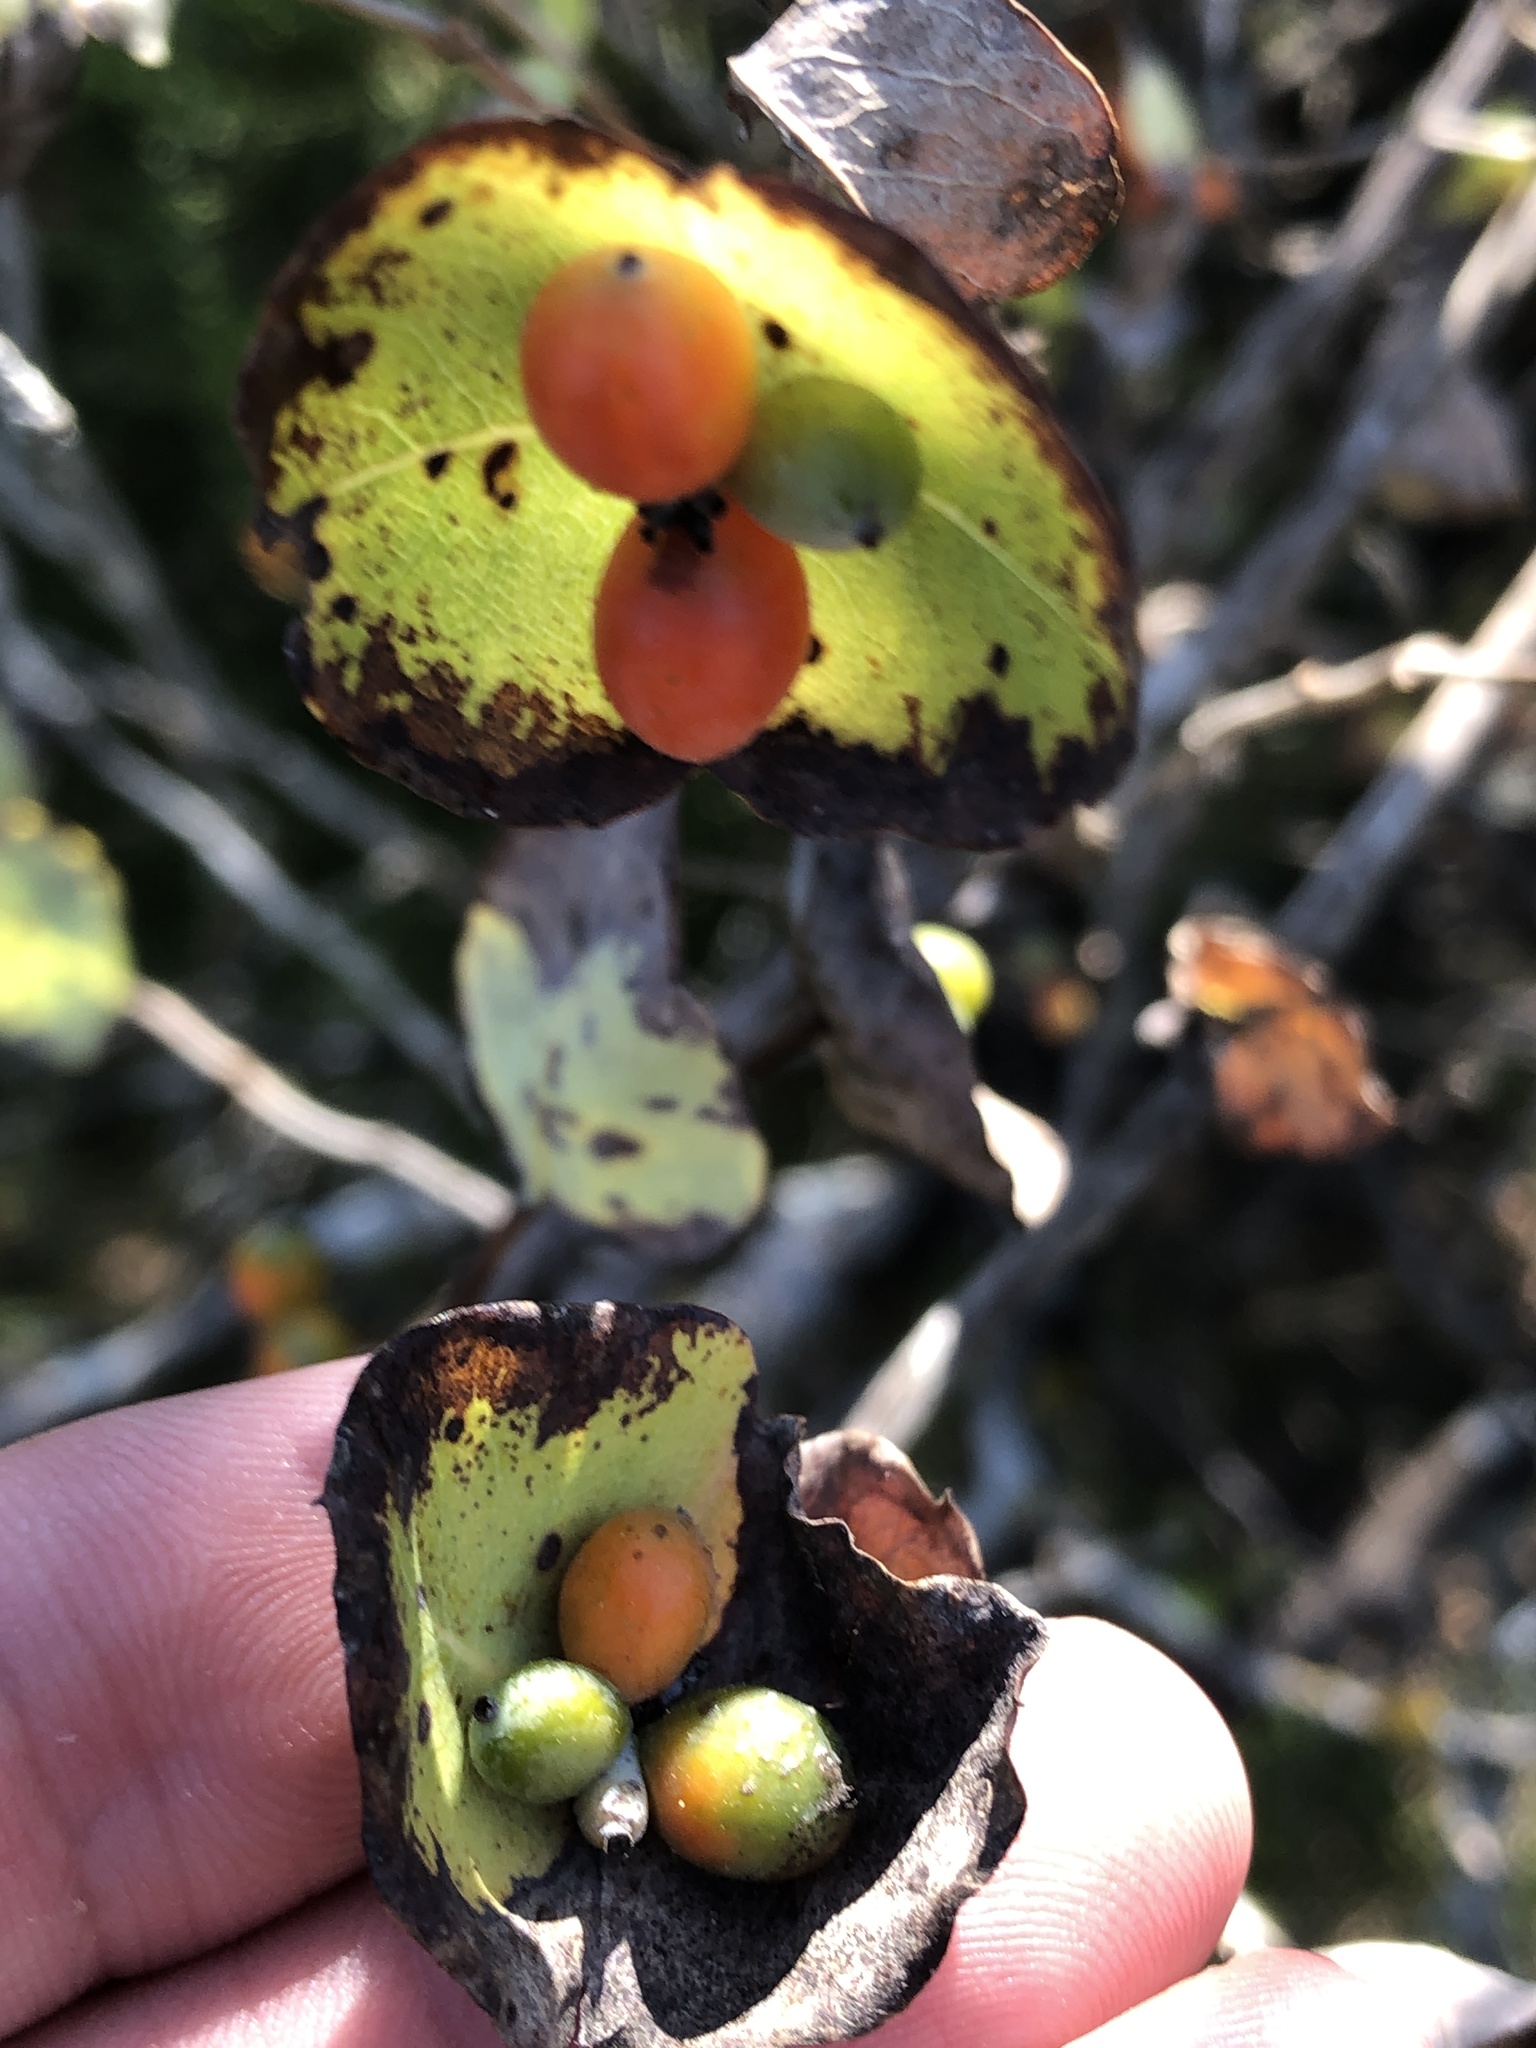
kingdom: Plantae
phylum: Tracheophyta
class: Magnoliopsida
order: Dipsacales
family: Caprifoliaceae
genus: Lonicera
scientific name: Lonicera albiflora
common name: White honeysuckle
